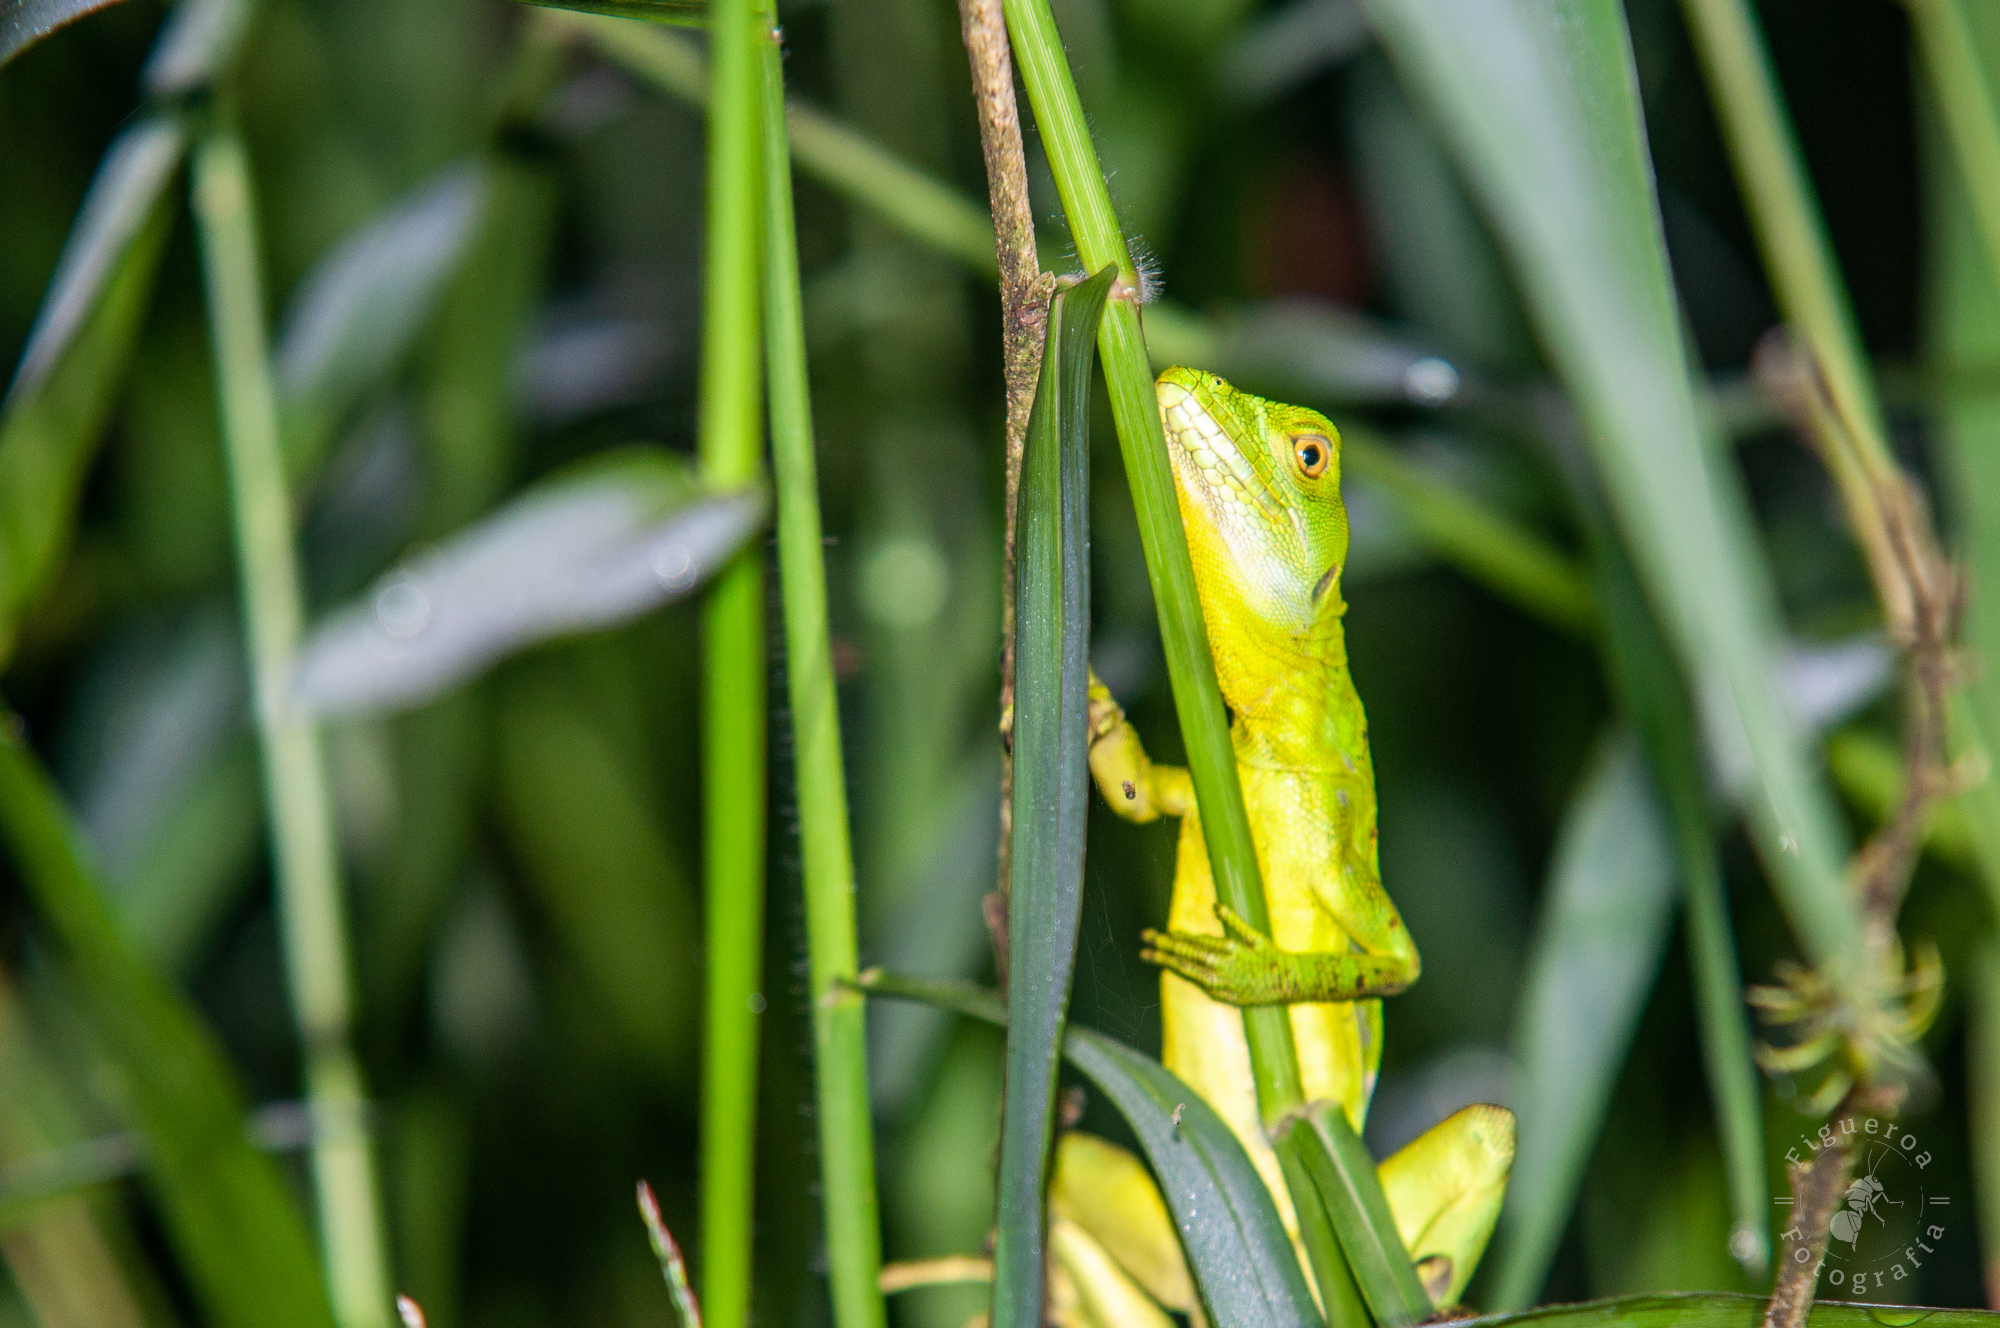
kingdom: Animalia
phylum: Chordata
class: Squamata
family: Corytophanidae
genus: Basiliscus
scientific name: Basiliscus plumifrons
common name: Green basilisk
